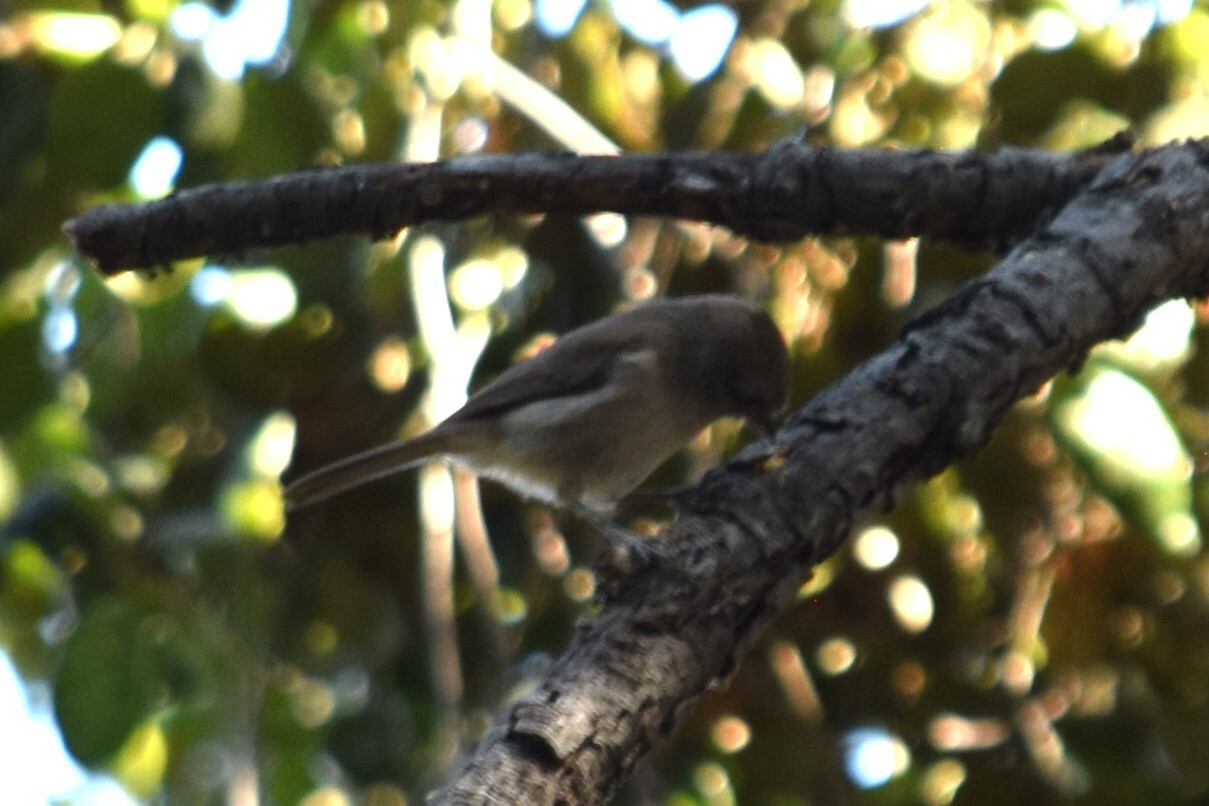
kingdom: Animalia
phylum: Chordata
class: Aves
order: Passeriformes
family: Paridae
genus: Baeolophus
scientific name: Baeolophus inornatus
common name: Oak titmouse
